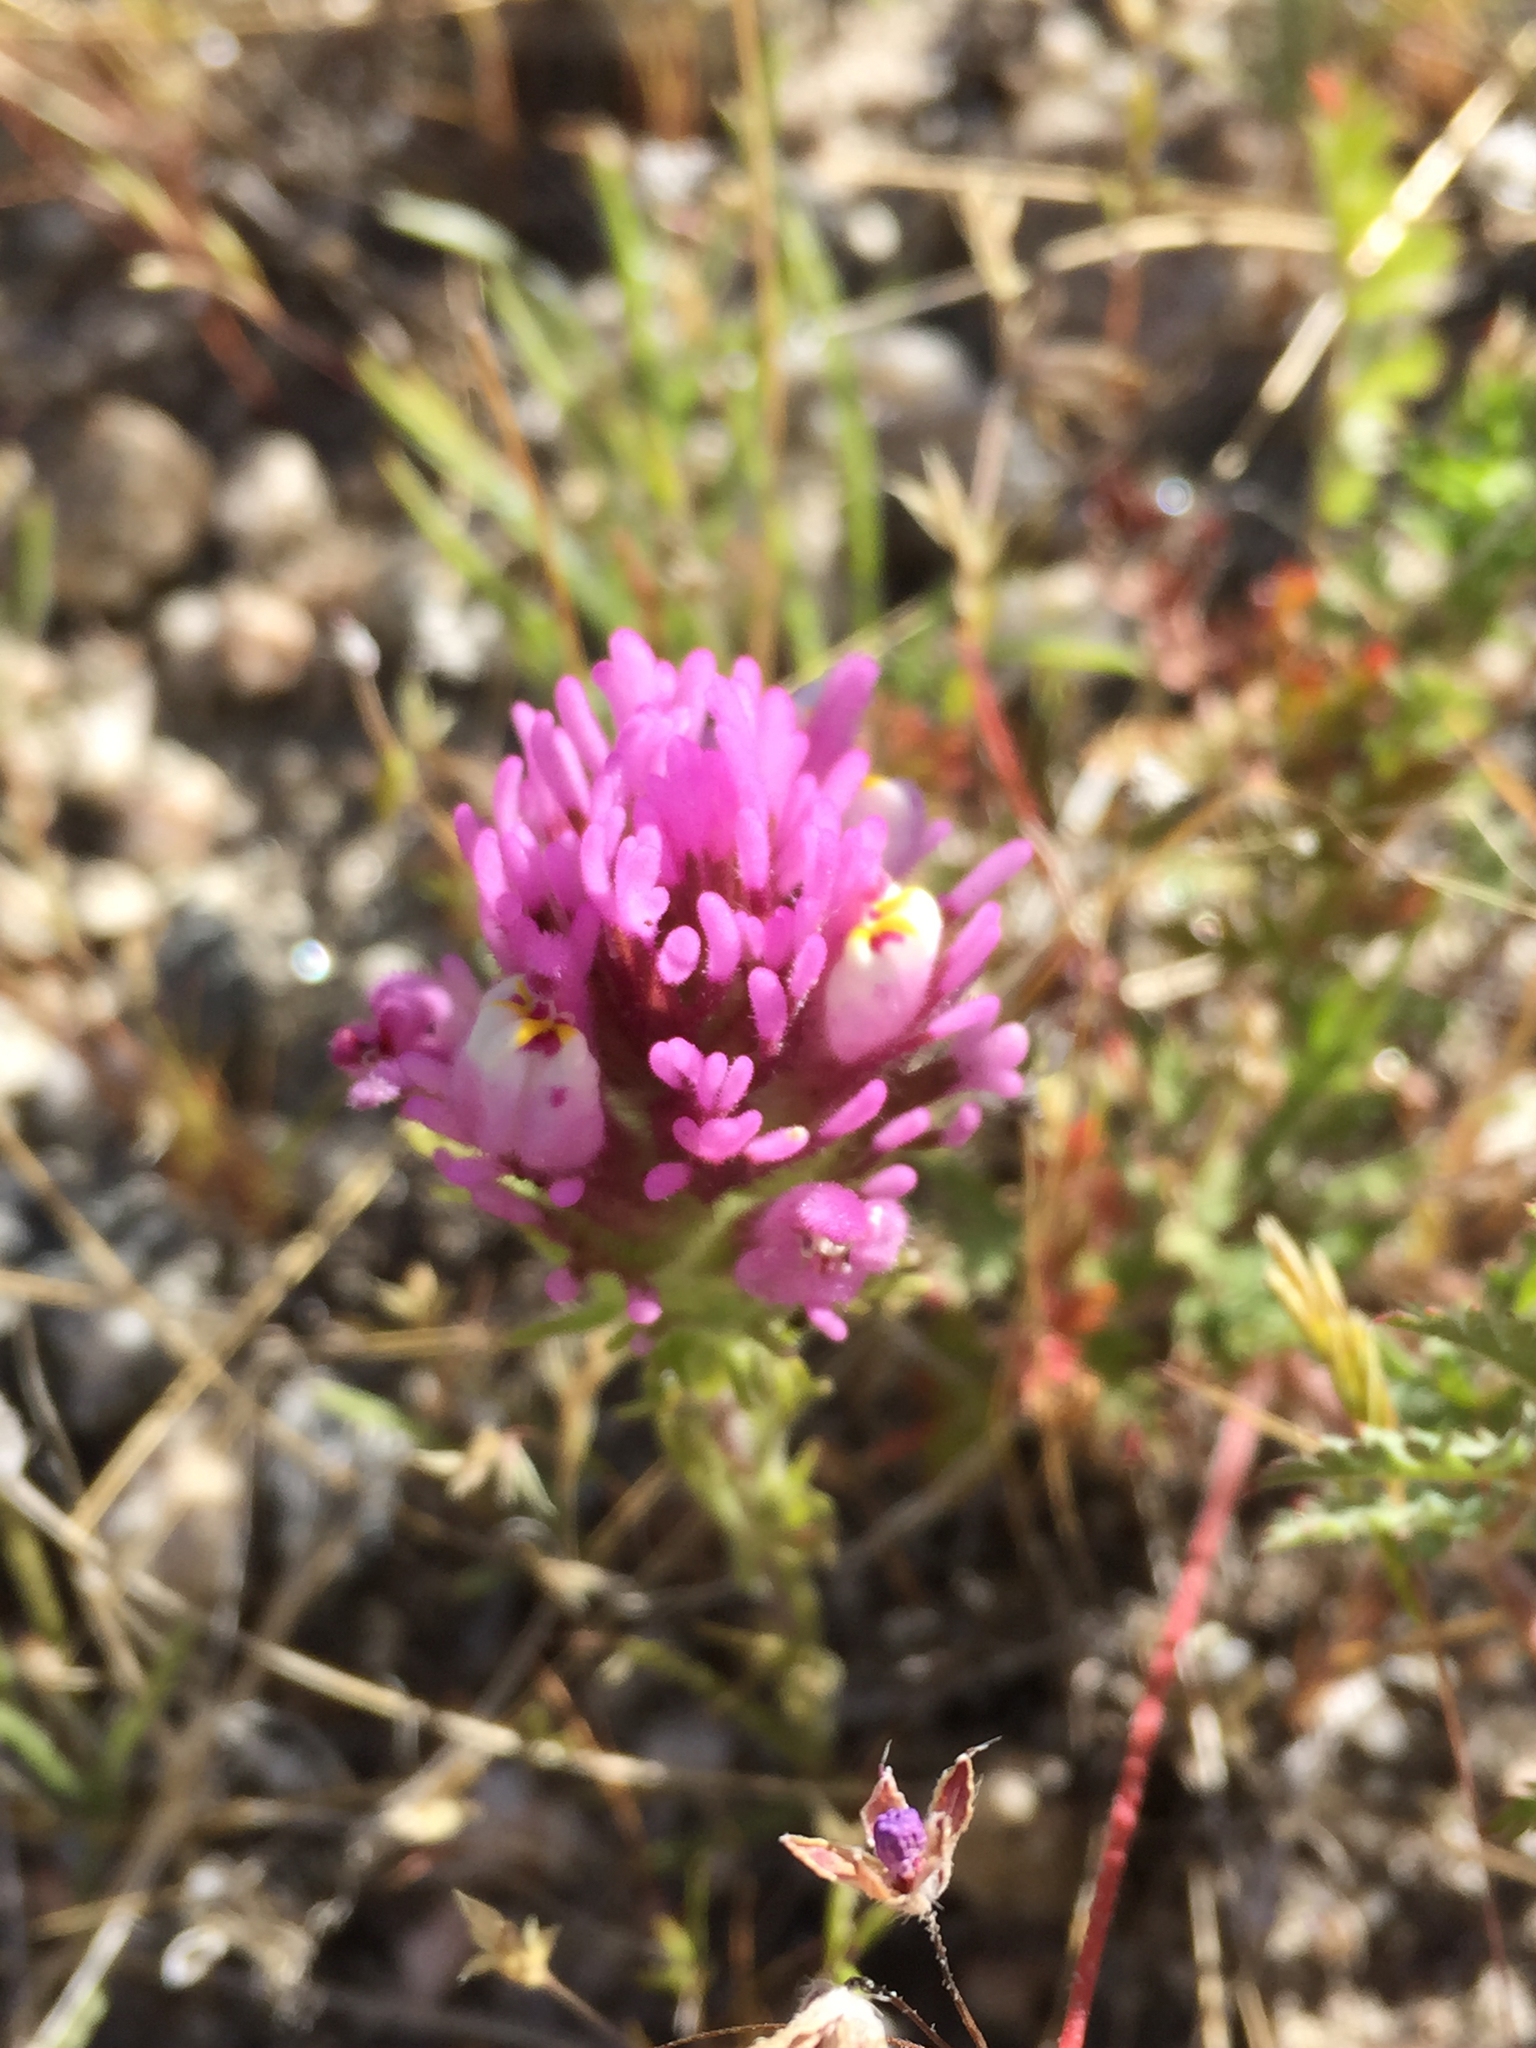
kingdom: Plantae
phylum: Tracheophyta
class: Magnoliopsida
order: Lamiales
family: Orobanchaceae
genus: Castilleja
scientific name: Castilleja exserta
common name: Purple owl-clover
